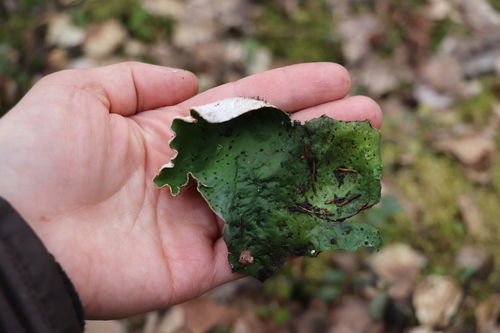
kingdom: Fungi
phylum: Ascomycota
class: Lecanoromycetes
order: Peltigerales
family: Peltigeraceae
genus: Peltigera
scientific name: Peltigera aphthosa
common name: Common freckle pelt lichen
